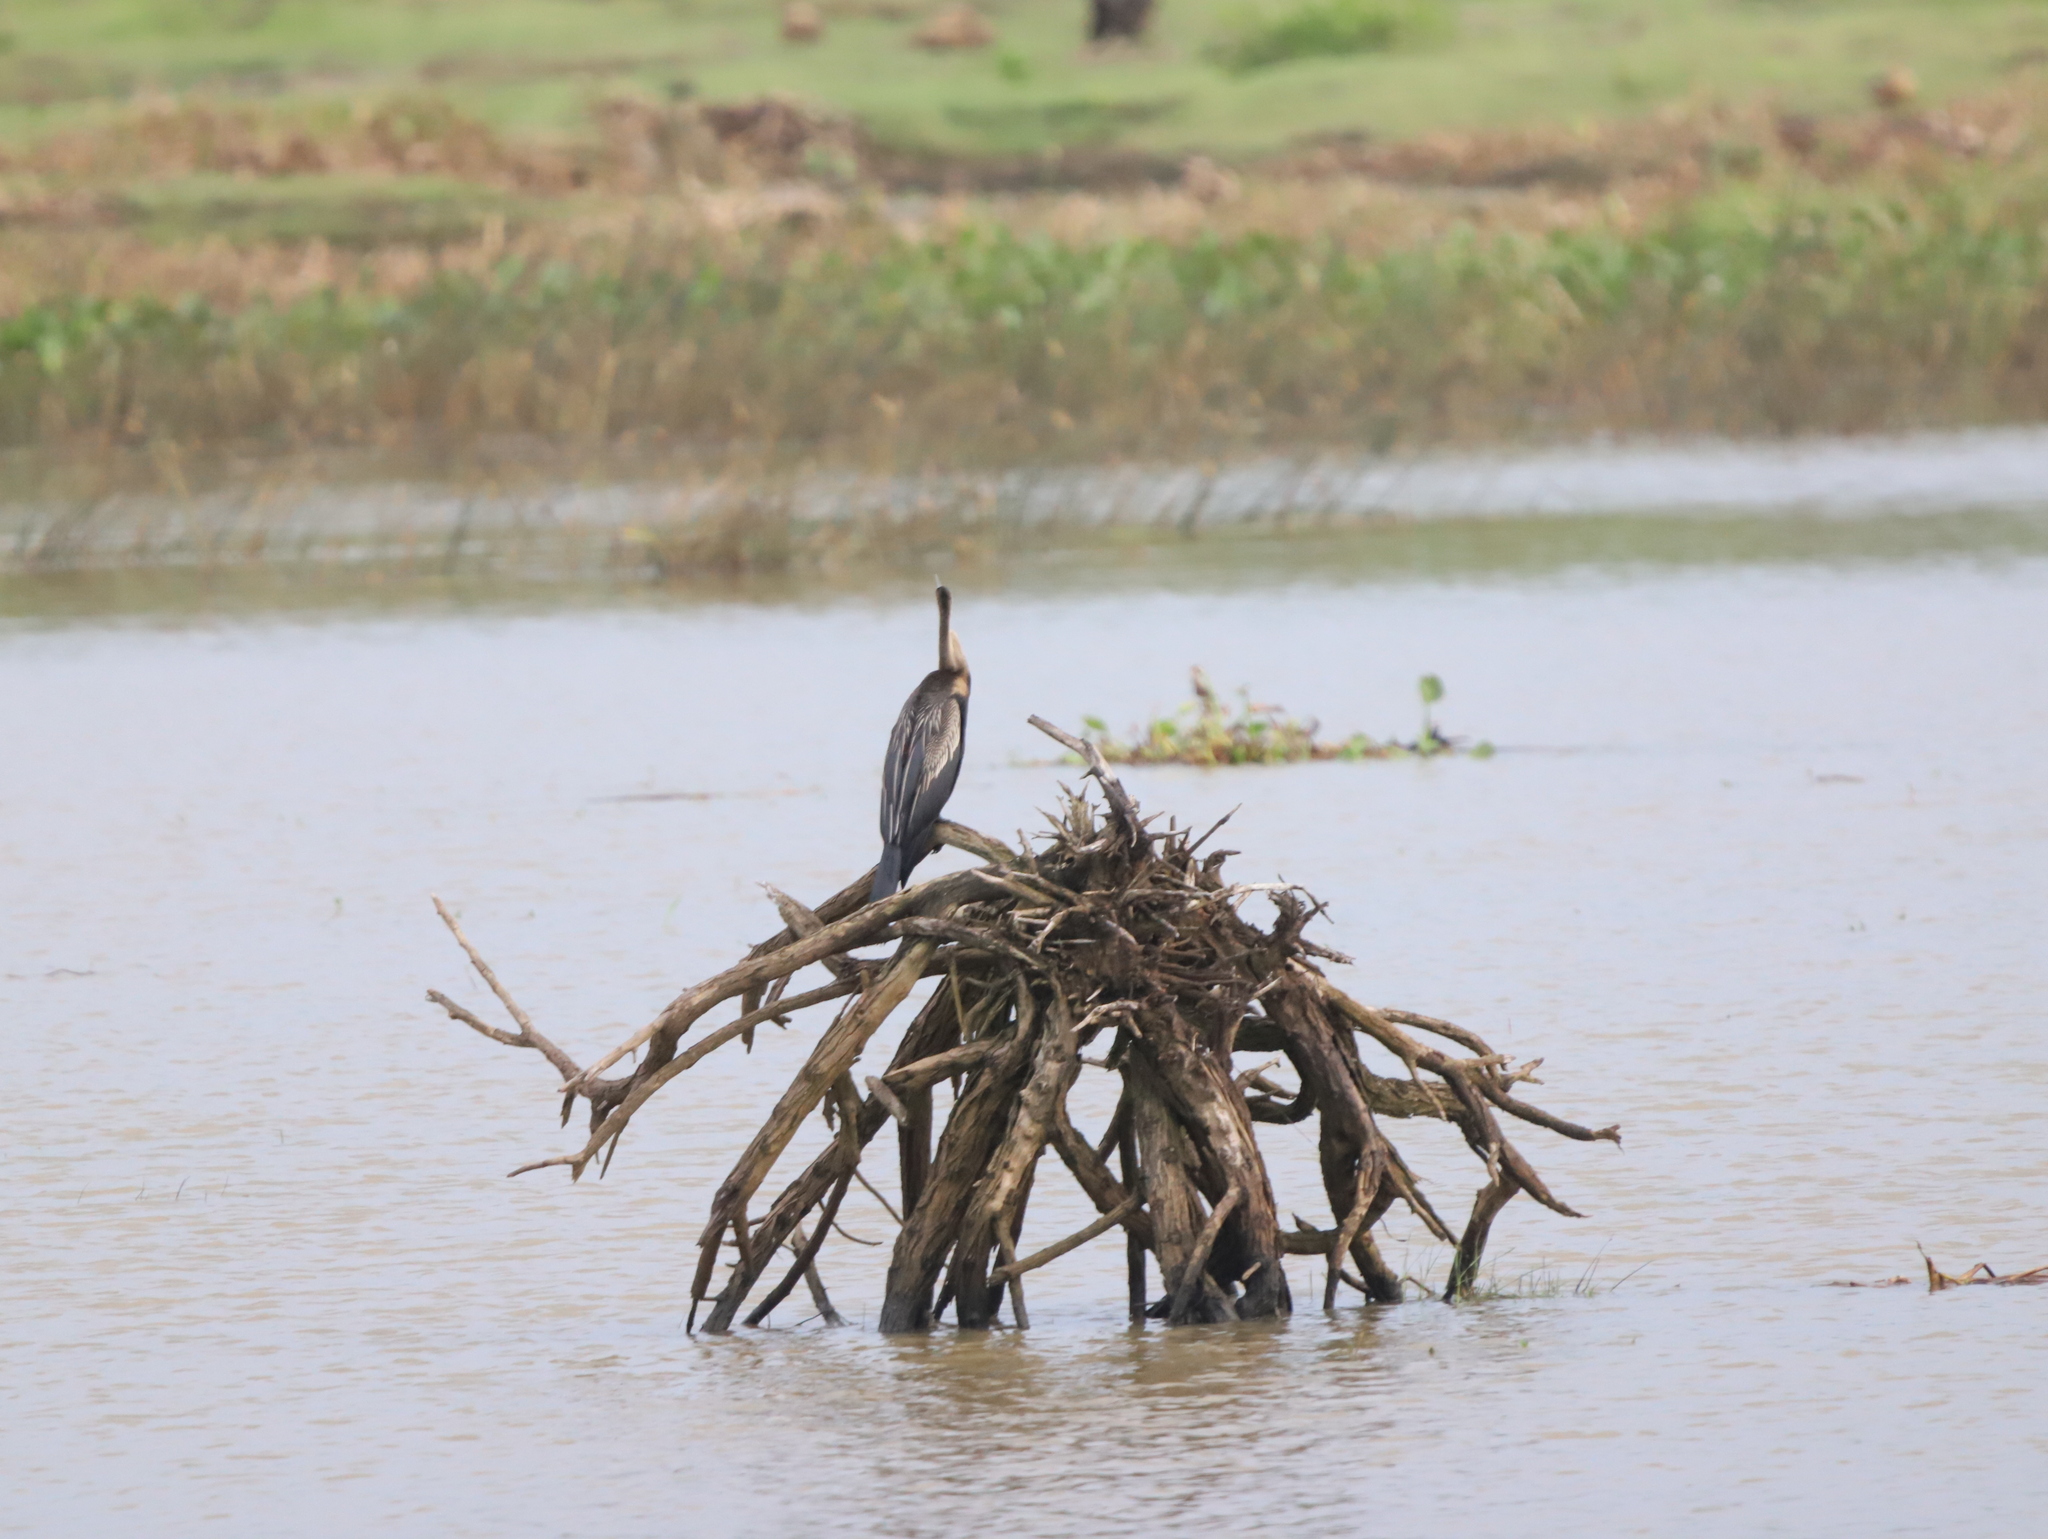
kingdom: Animalia
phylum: Chordata
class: Aves
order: Suliformes
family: Anhingidae
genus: Anhinga
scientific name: Anhinga melanogaster
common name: Oriental darter
